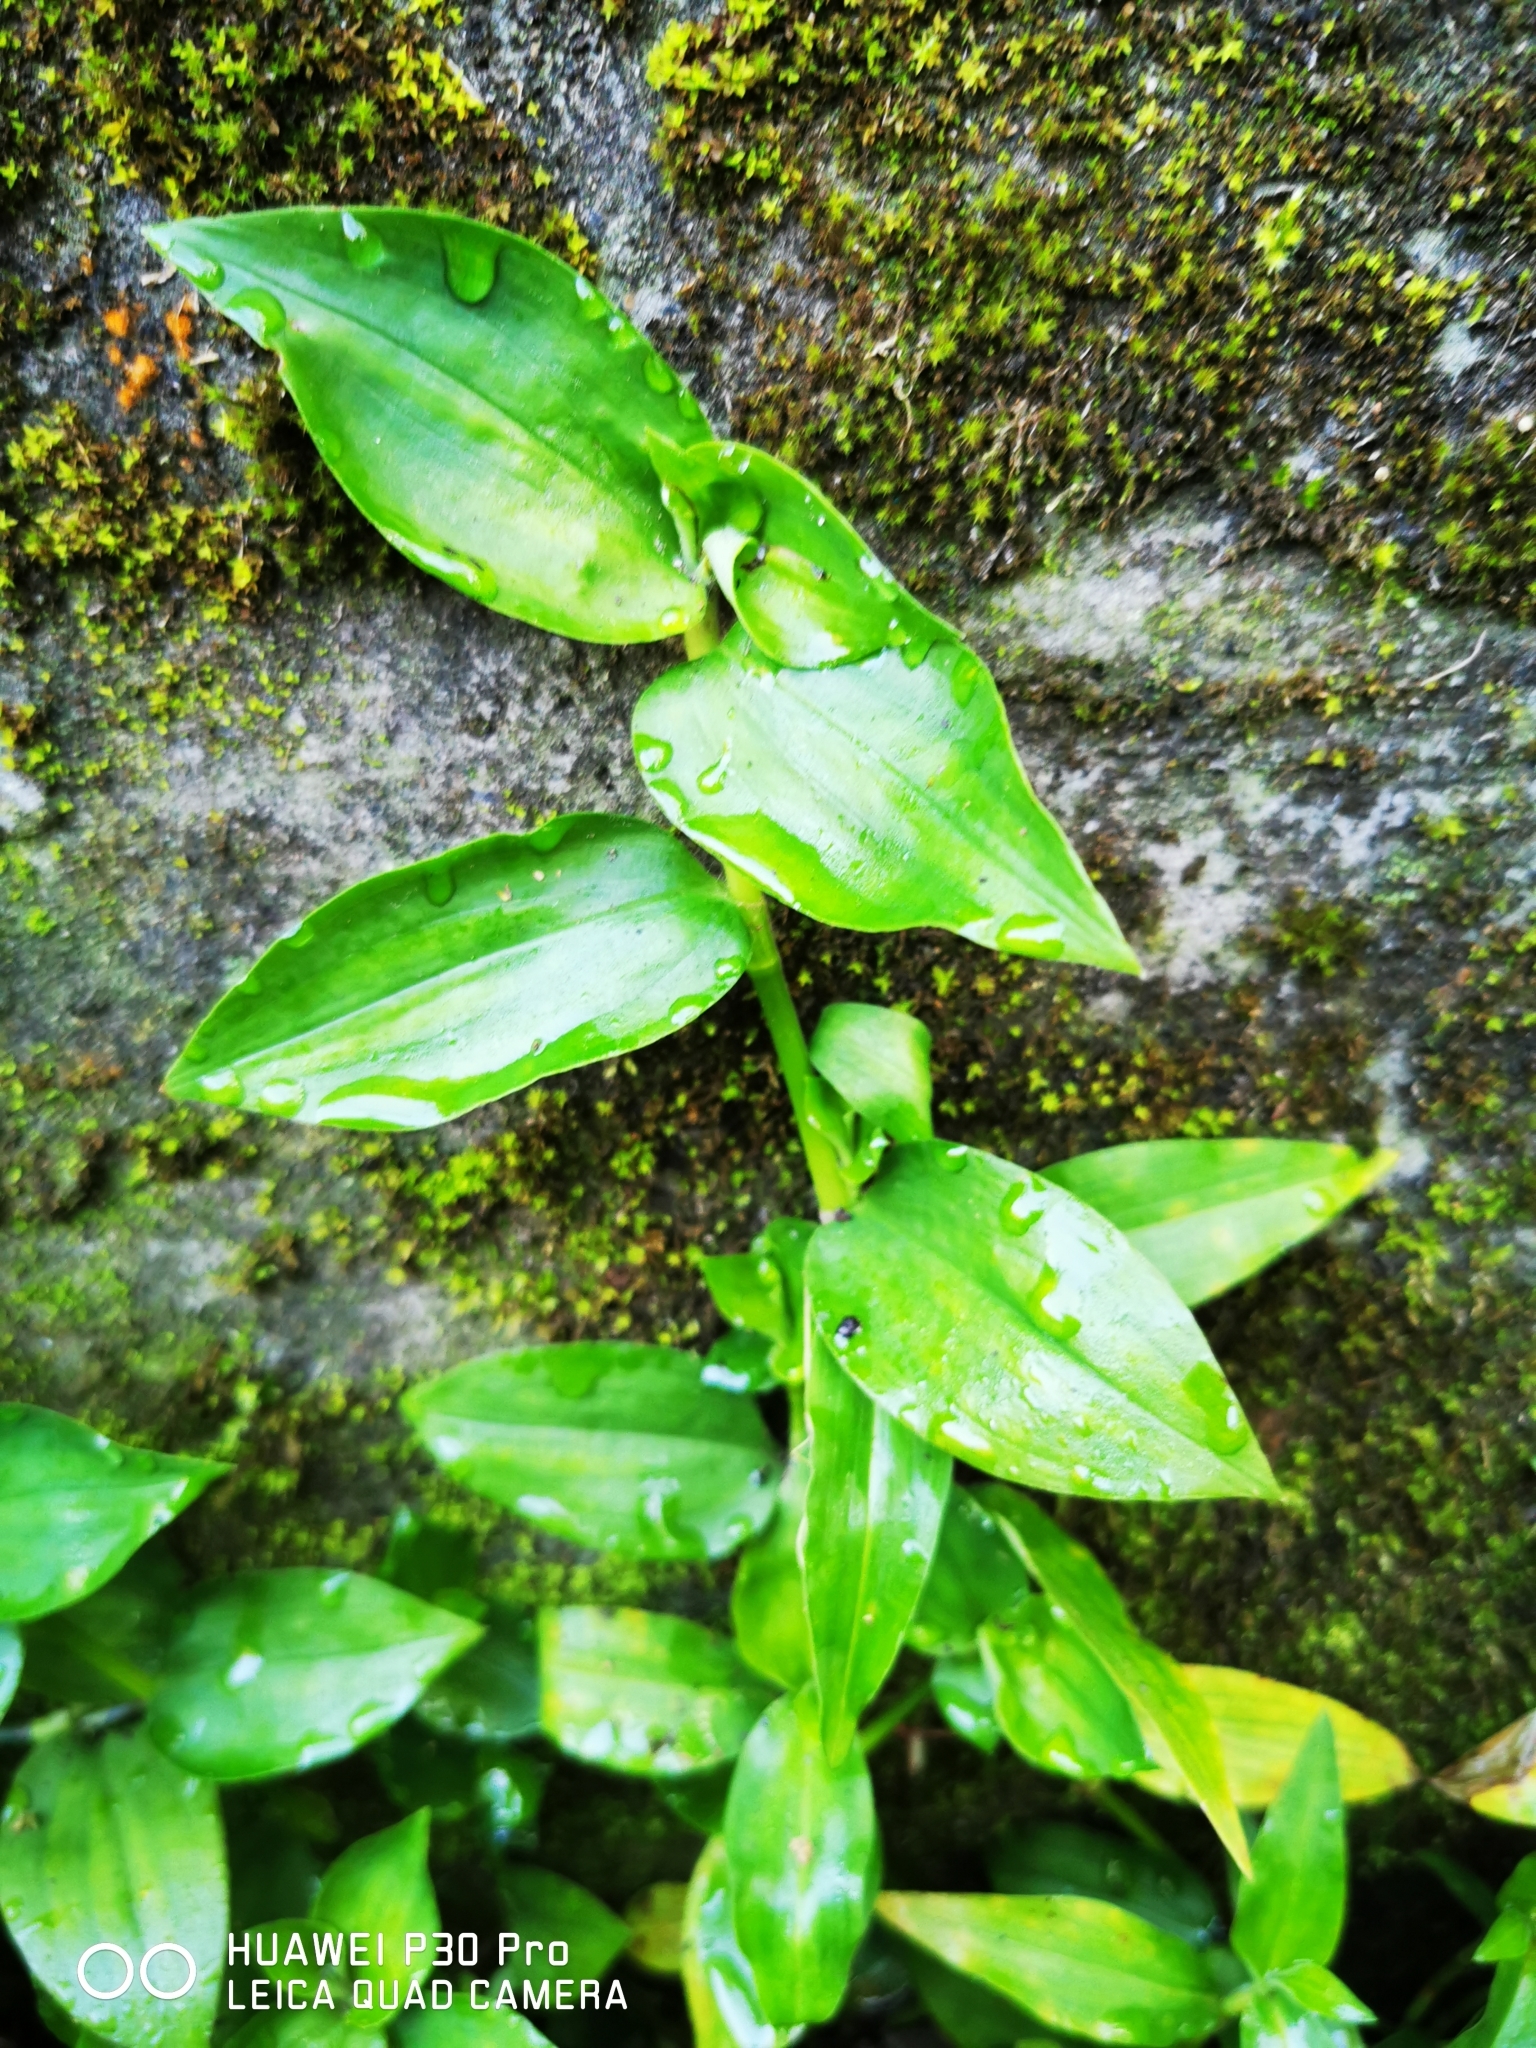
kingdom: Plantae
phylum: Tracheophyta
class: Liliopsida
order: Commelinales
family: Commelinaceae
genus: Tradescantia
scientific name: Tradescantia fluminensis
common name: Wandering-jew
